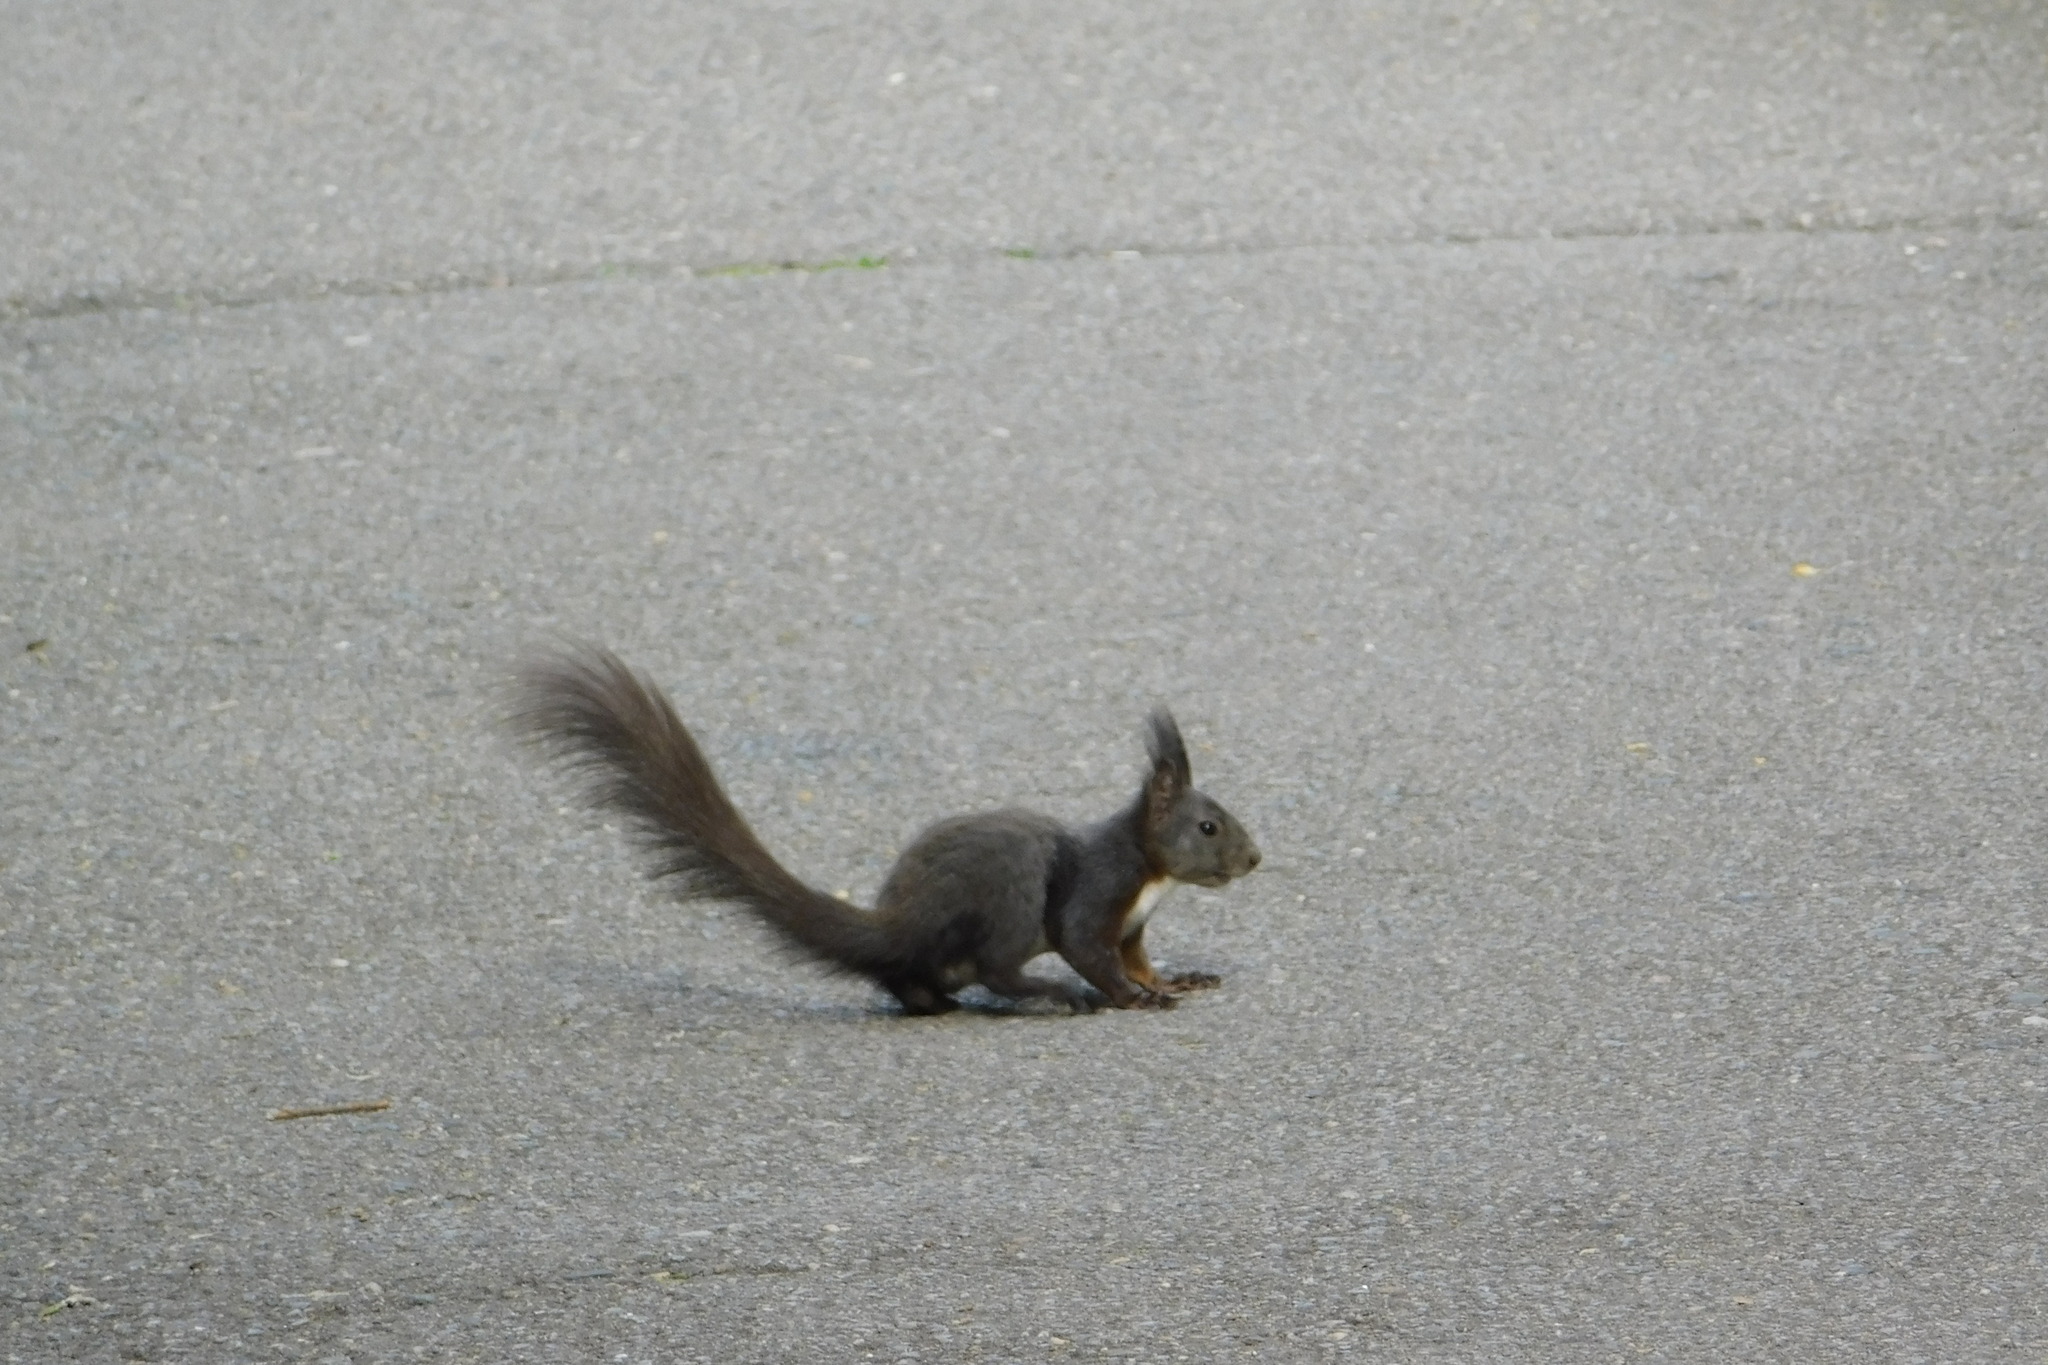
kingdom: Animalia
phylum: Chordata
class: Mammalia
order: Rodentia
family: Sciuridae
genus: Sciurus
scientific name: Sciurus vulgaris
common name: Eurasian red squirrel
